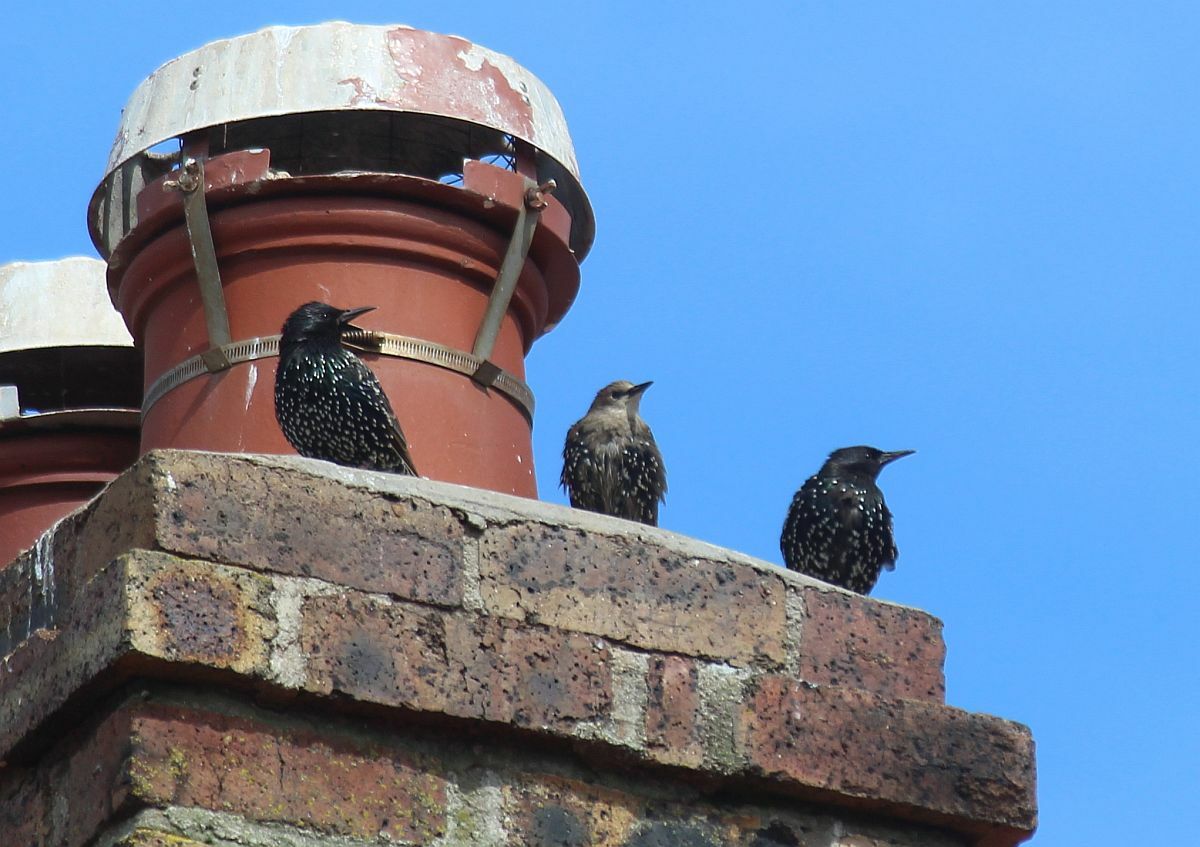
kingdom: Animalia
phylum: Chordata
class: Aves
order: Passeriformes
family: Sturnidae
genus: Sturnus
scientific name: Sturnus vulgaris
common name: Common starling
